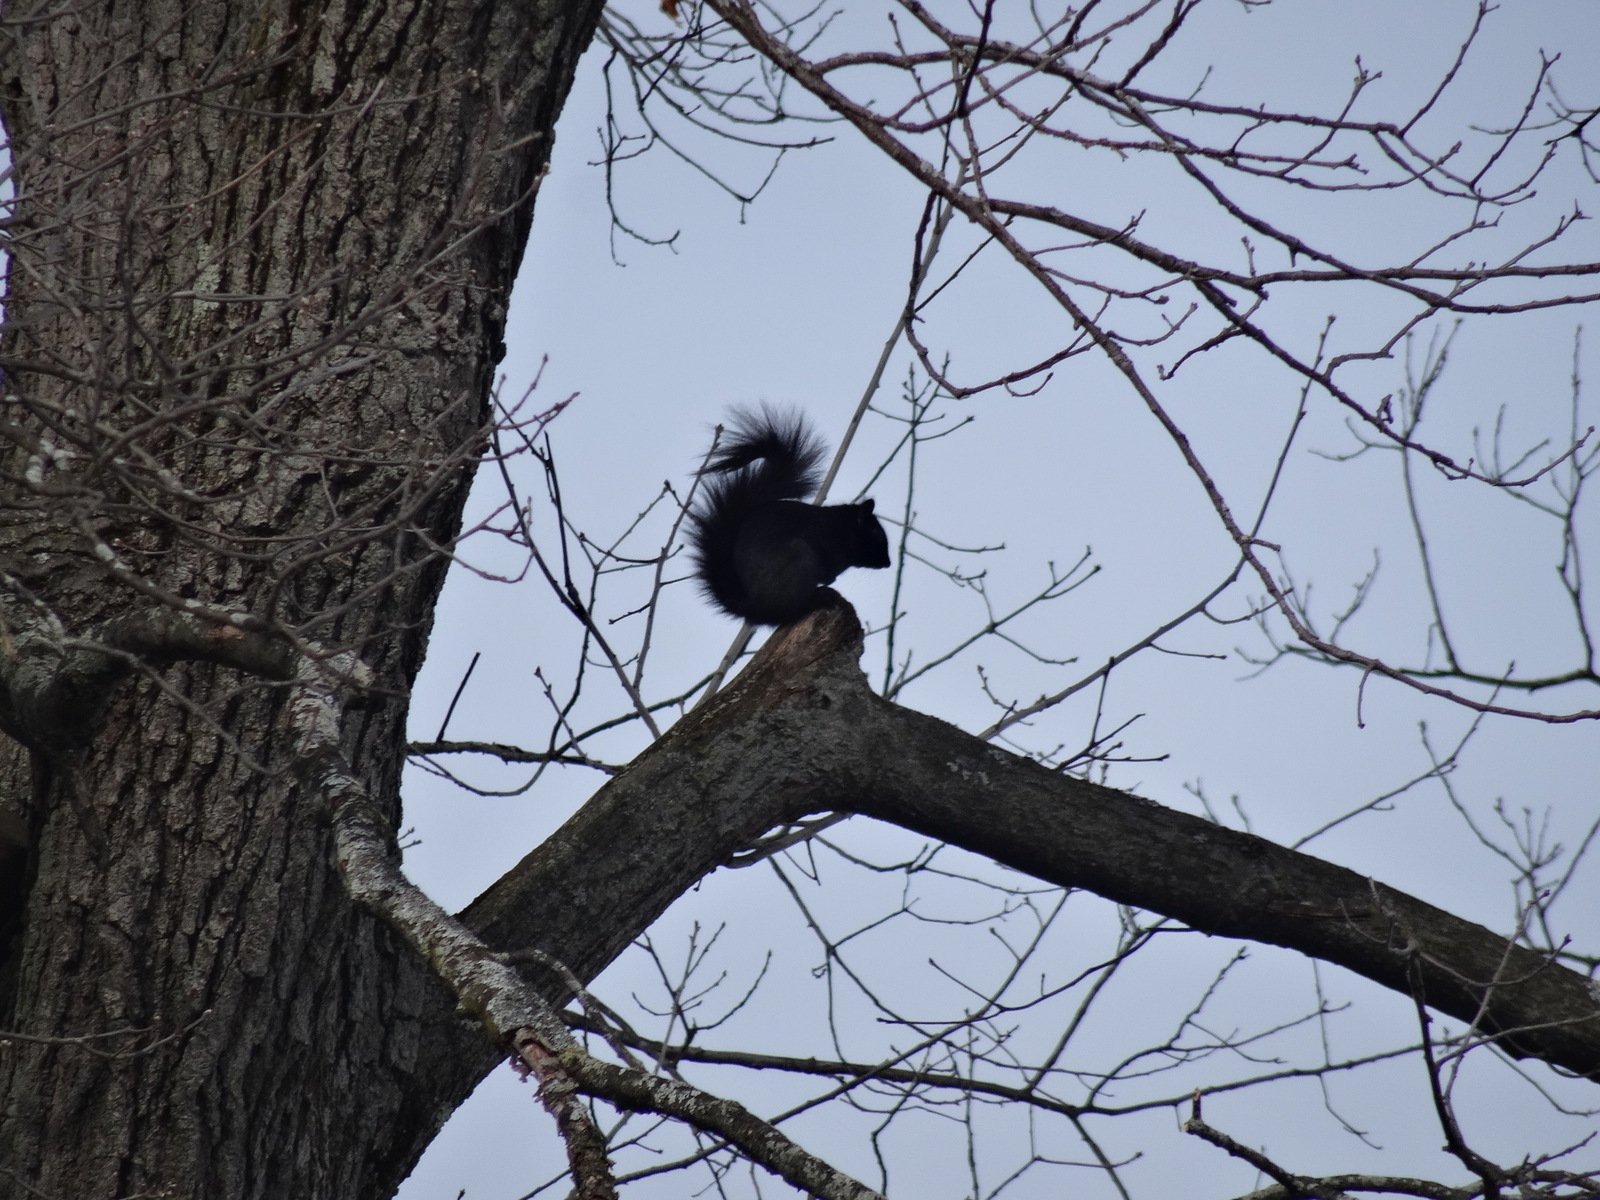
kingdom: Animalia
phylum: Chordata
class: Mammalia
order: Rodentia
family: Sciuridae
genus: Sciurus
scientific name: Sciurus carolinensis
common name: Eastern gray squirrel
